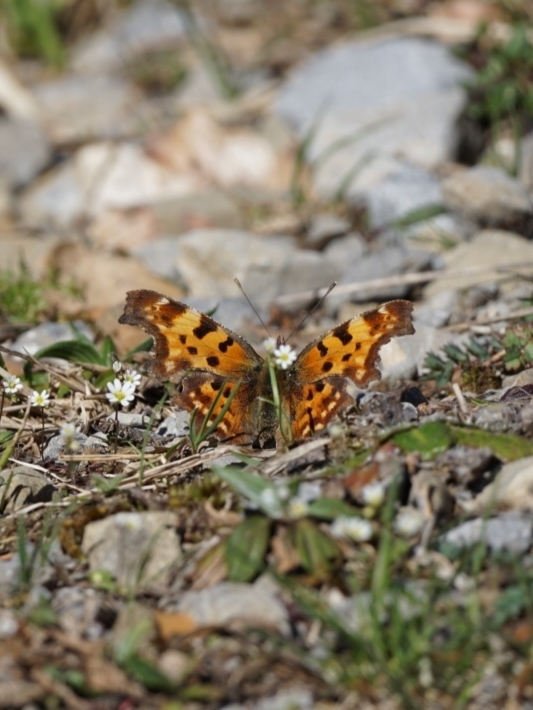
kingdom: Animalia
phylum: Arthropoda
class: Insecta
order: Lepidoptera
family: Nymphalidae
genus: Polygonia
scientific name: Polygonia c-album
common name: Comma
